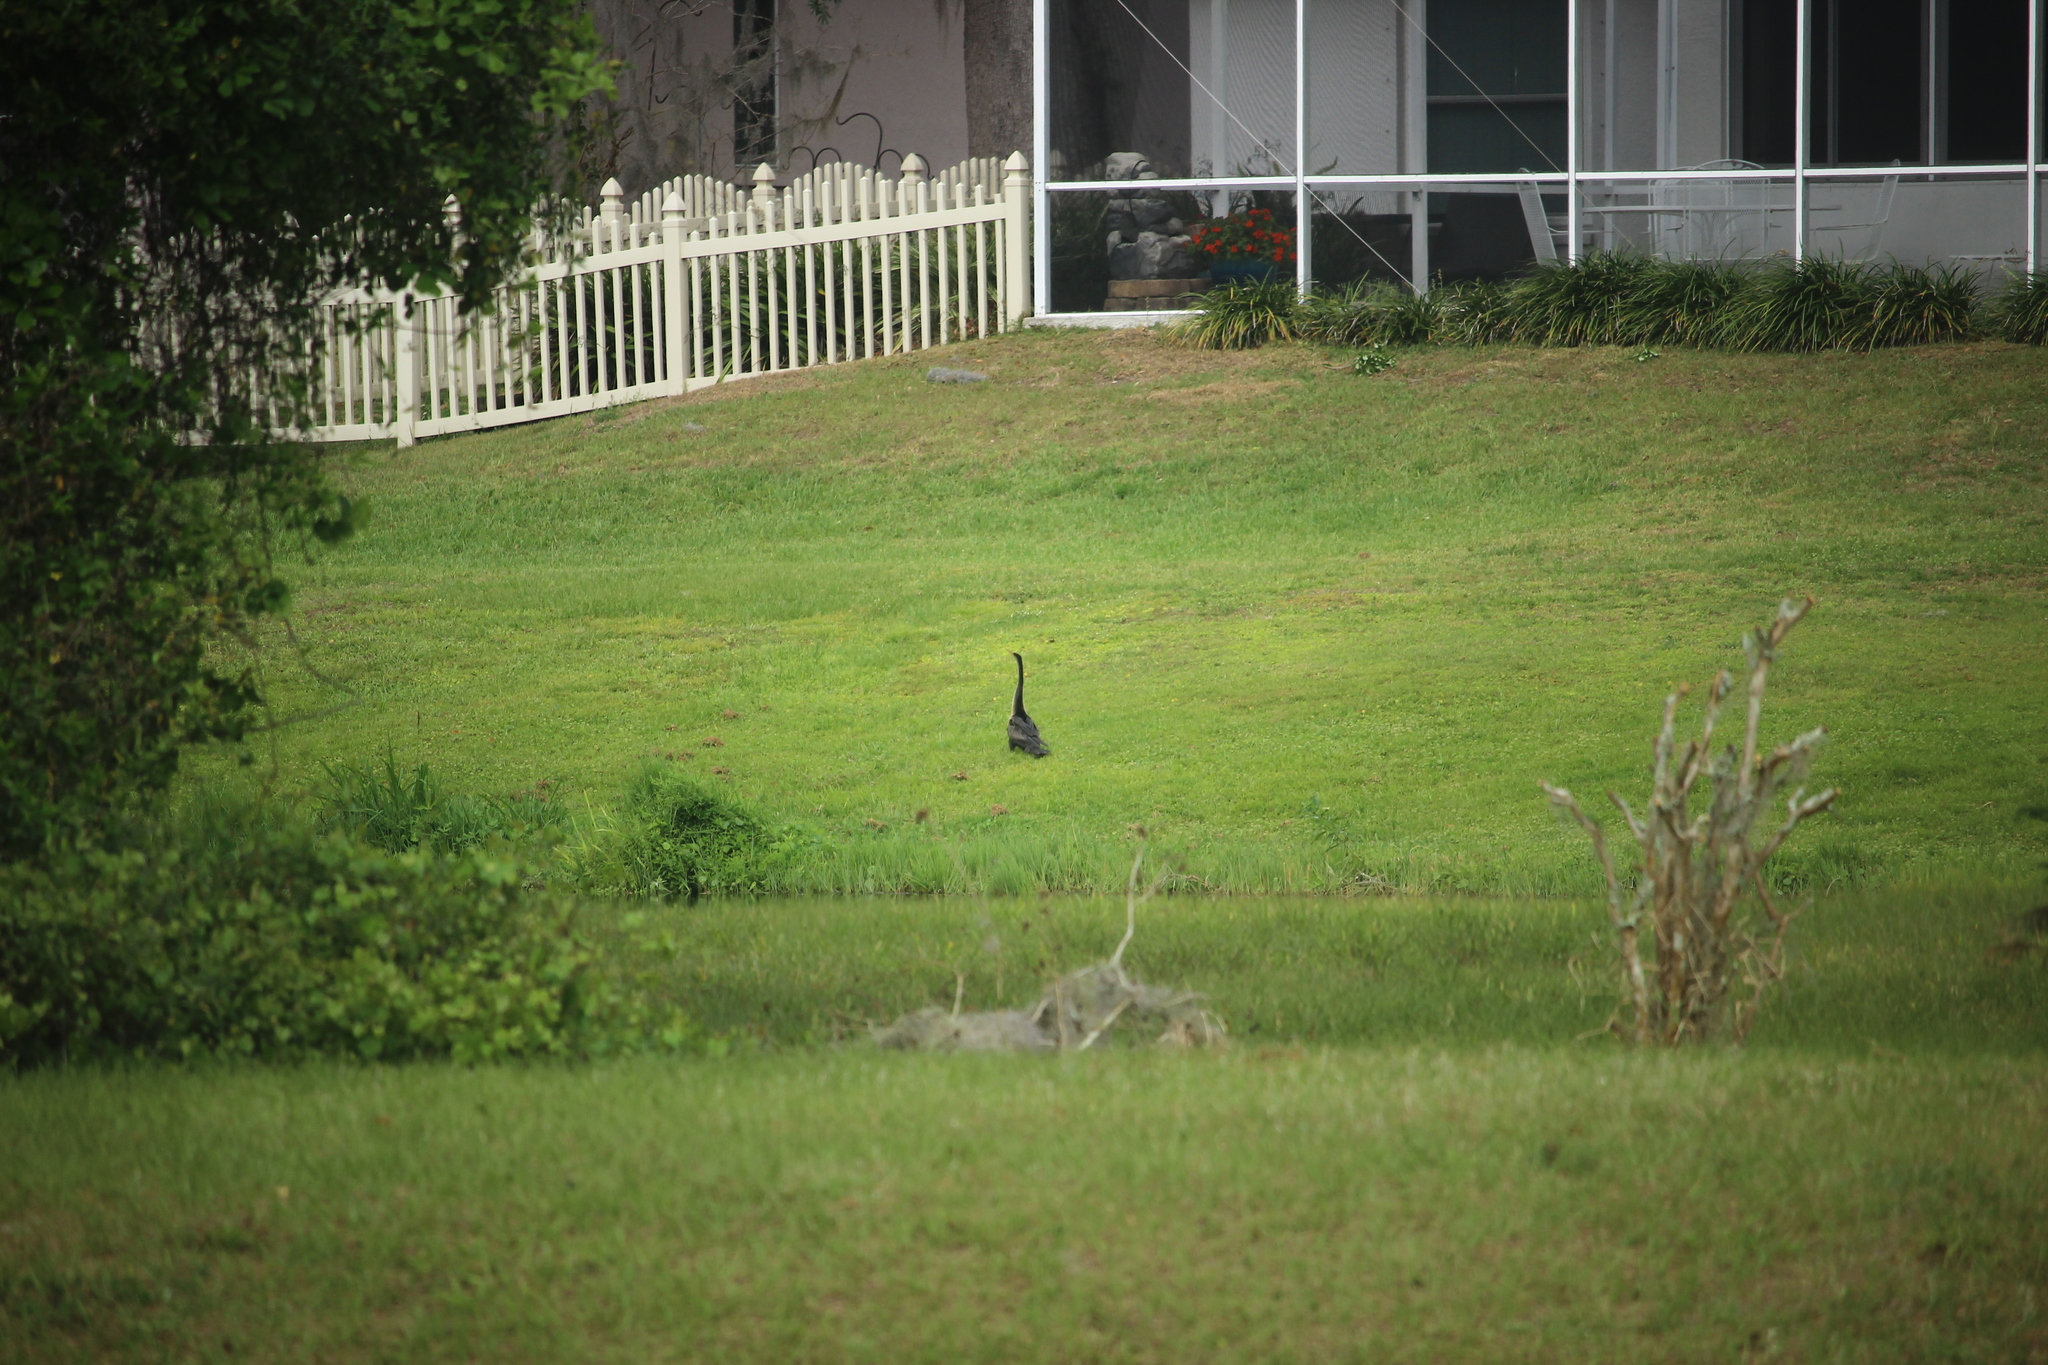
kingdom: Animalia
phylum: Chordata
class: Aves
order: Suliformes
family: Anhingidae
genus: Anhinga
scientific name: Anhinga anhinga
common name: Anhinga
